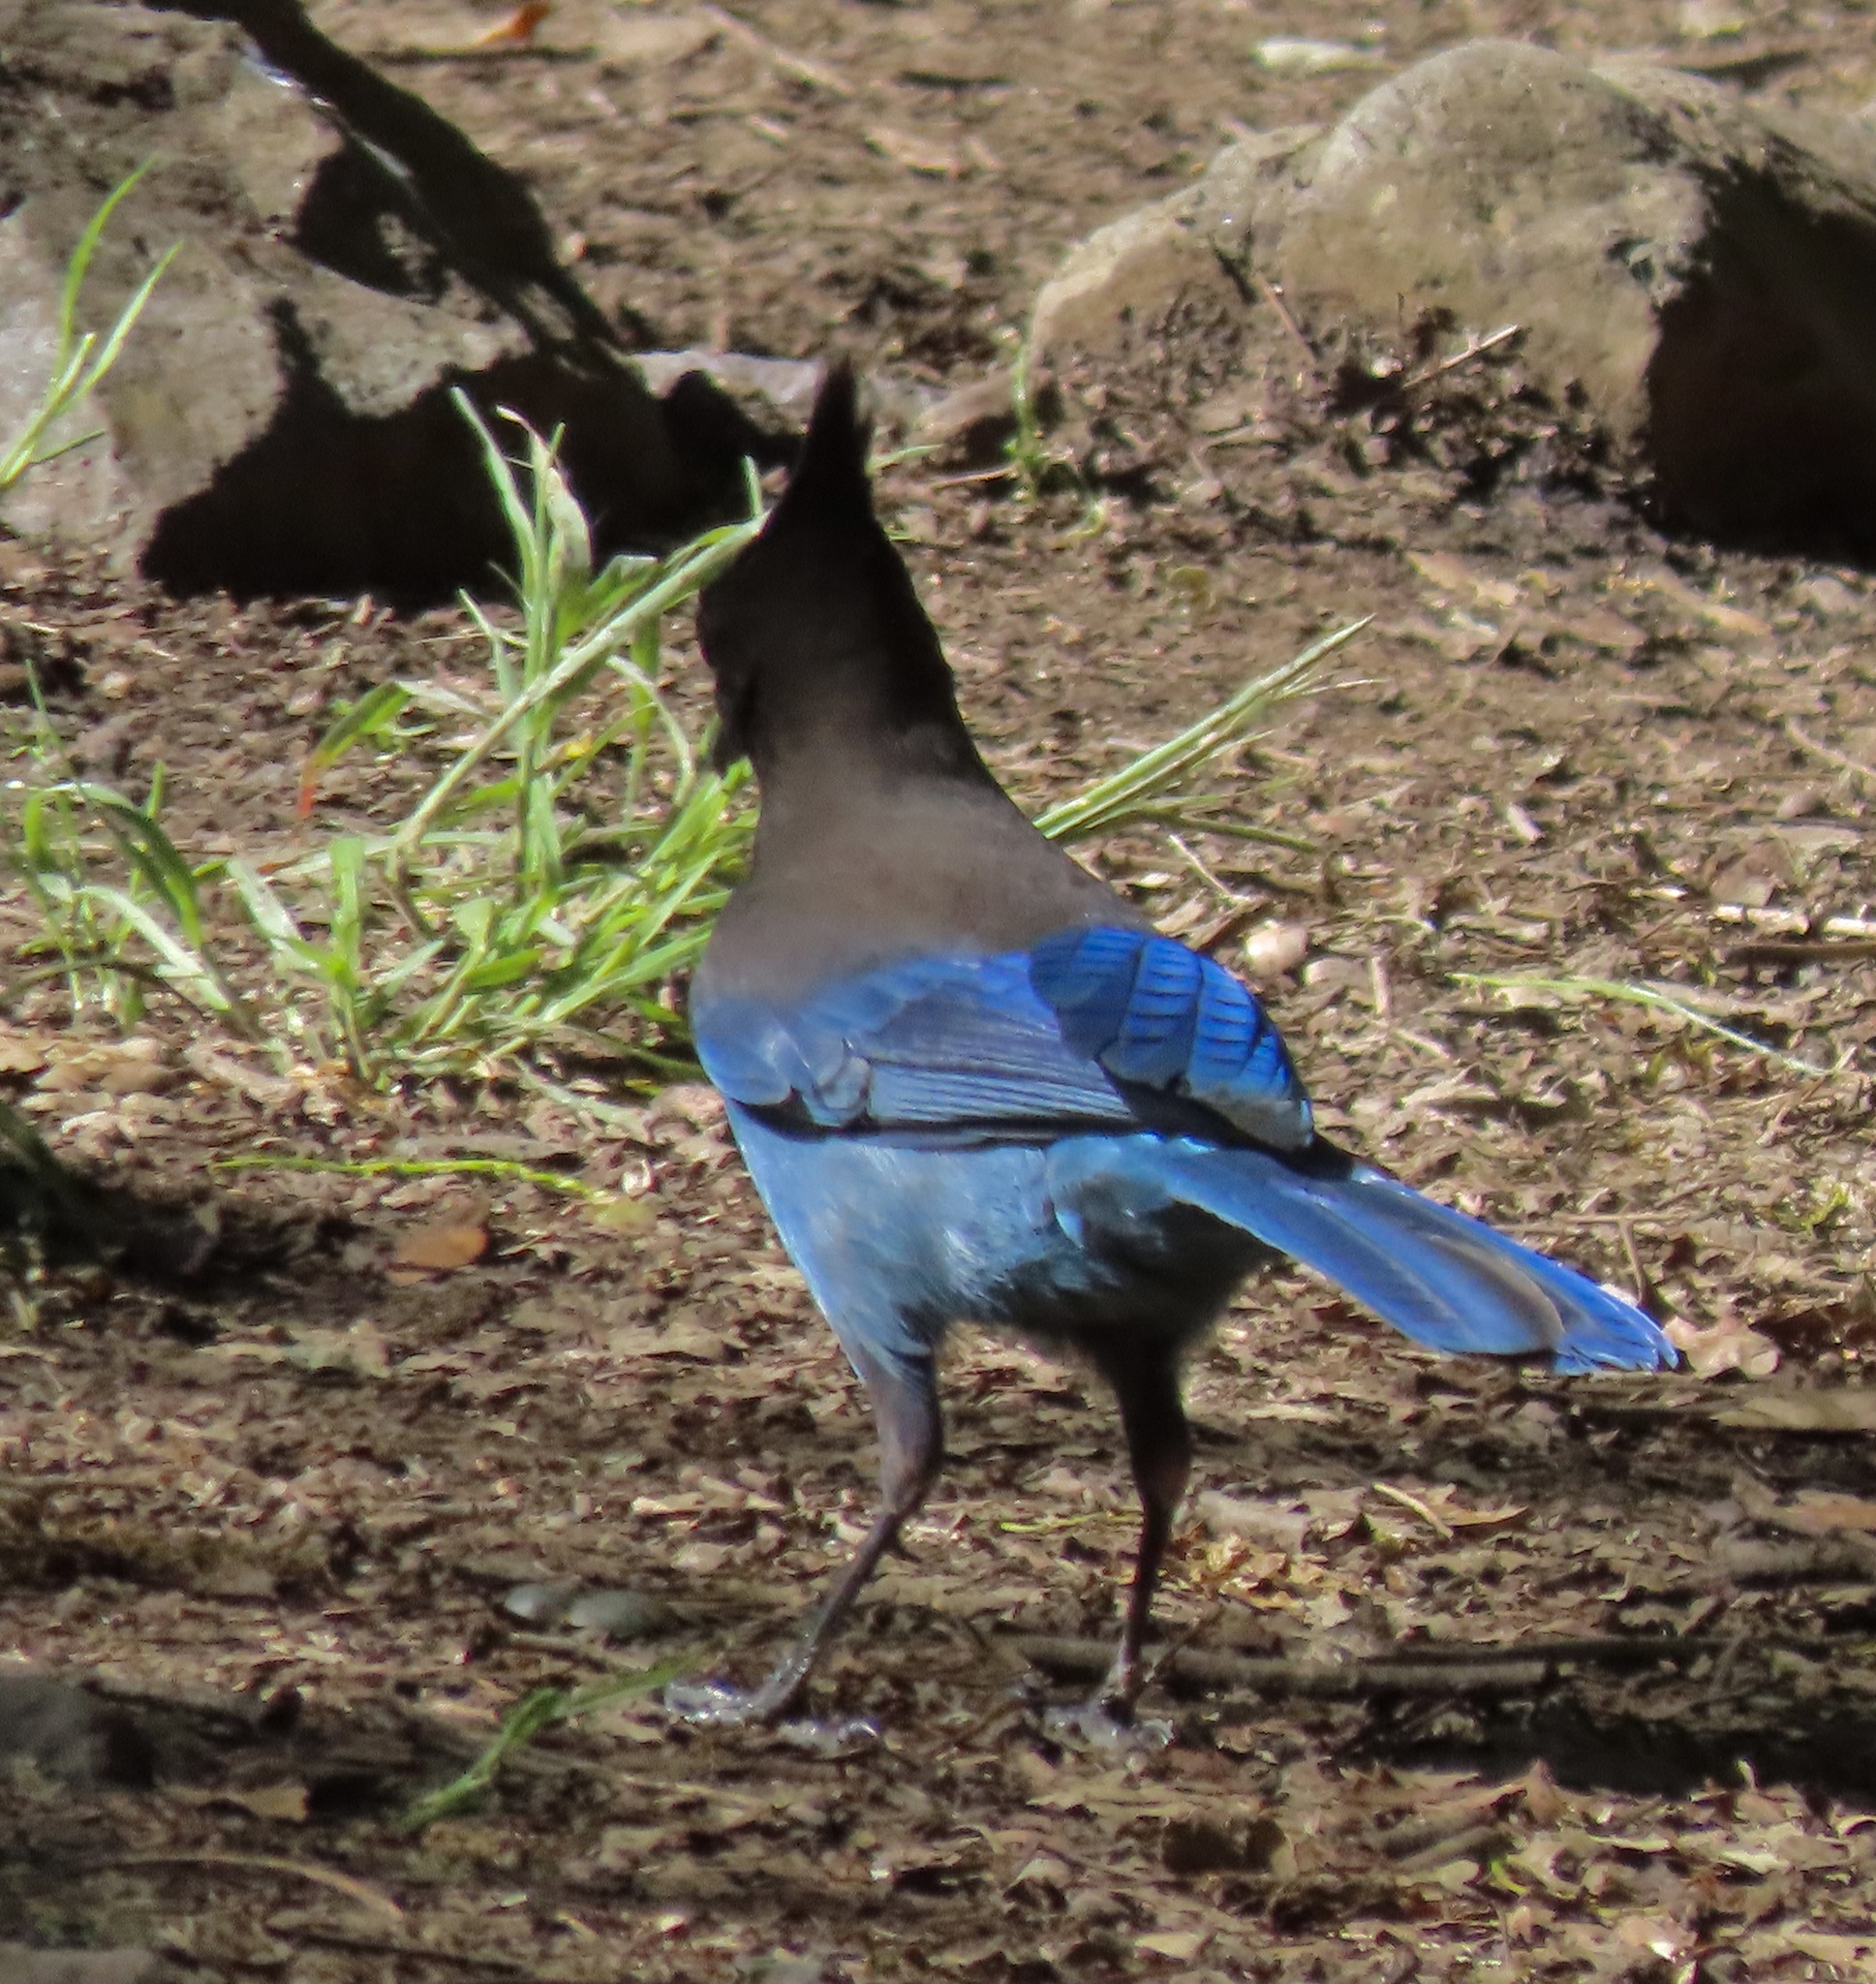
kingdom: Animalia
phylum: Chordata
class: Aves
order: Passeriformes
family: Corvidae
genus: Cyanocitta
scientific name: Cyanocitta stelleri
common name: Steller's jay
